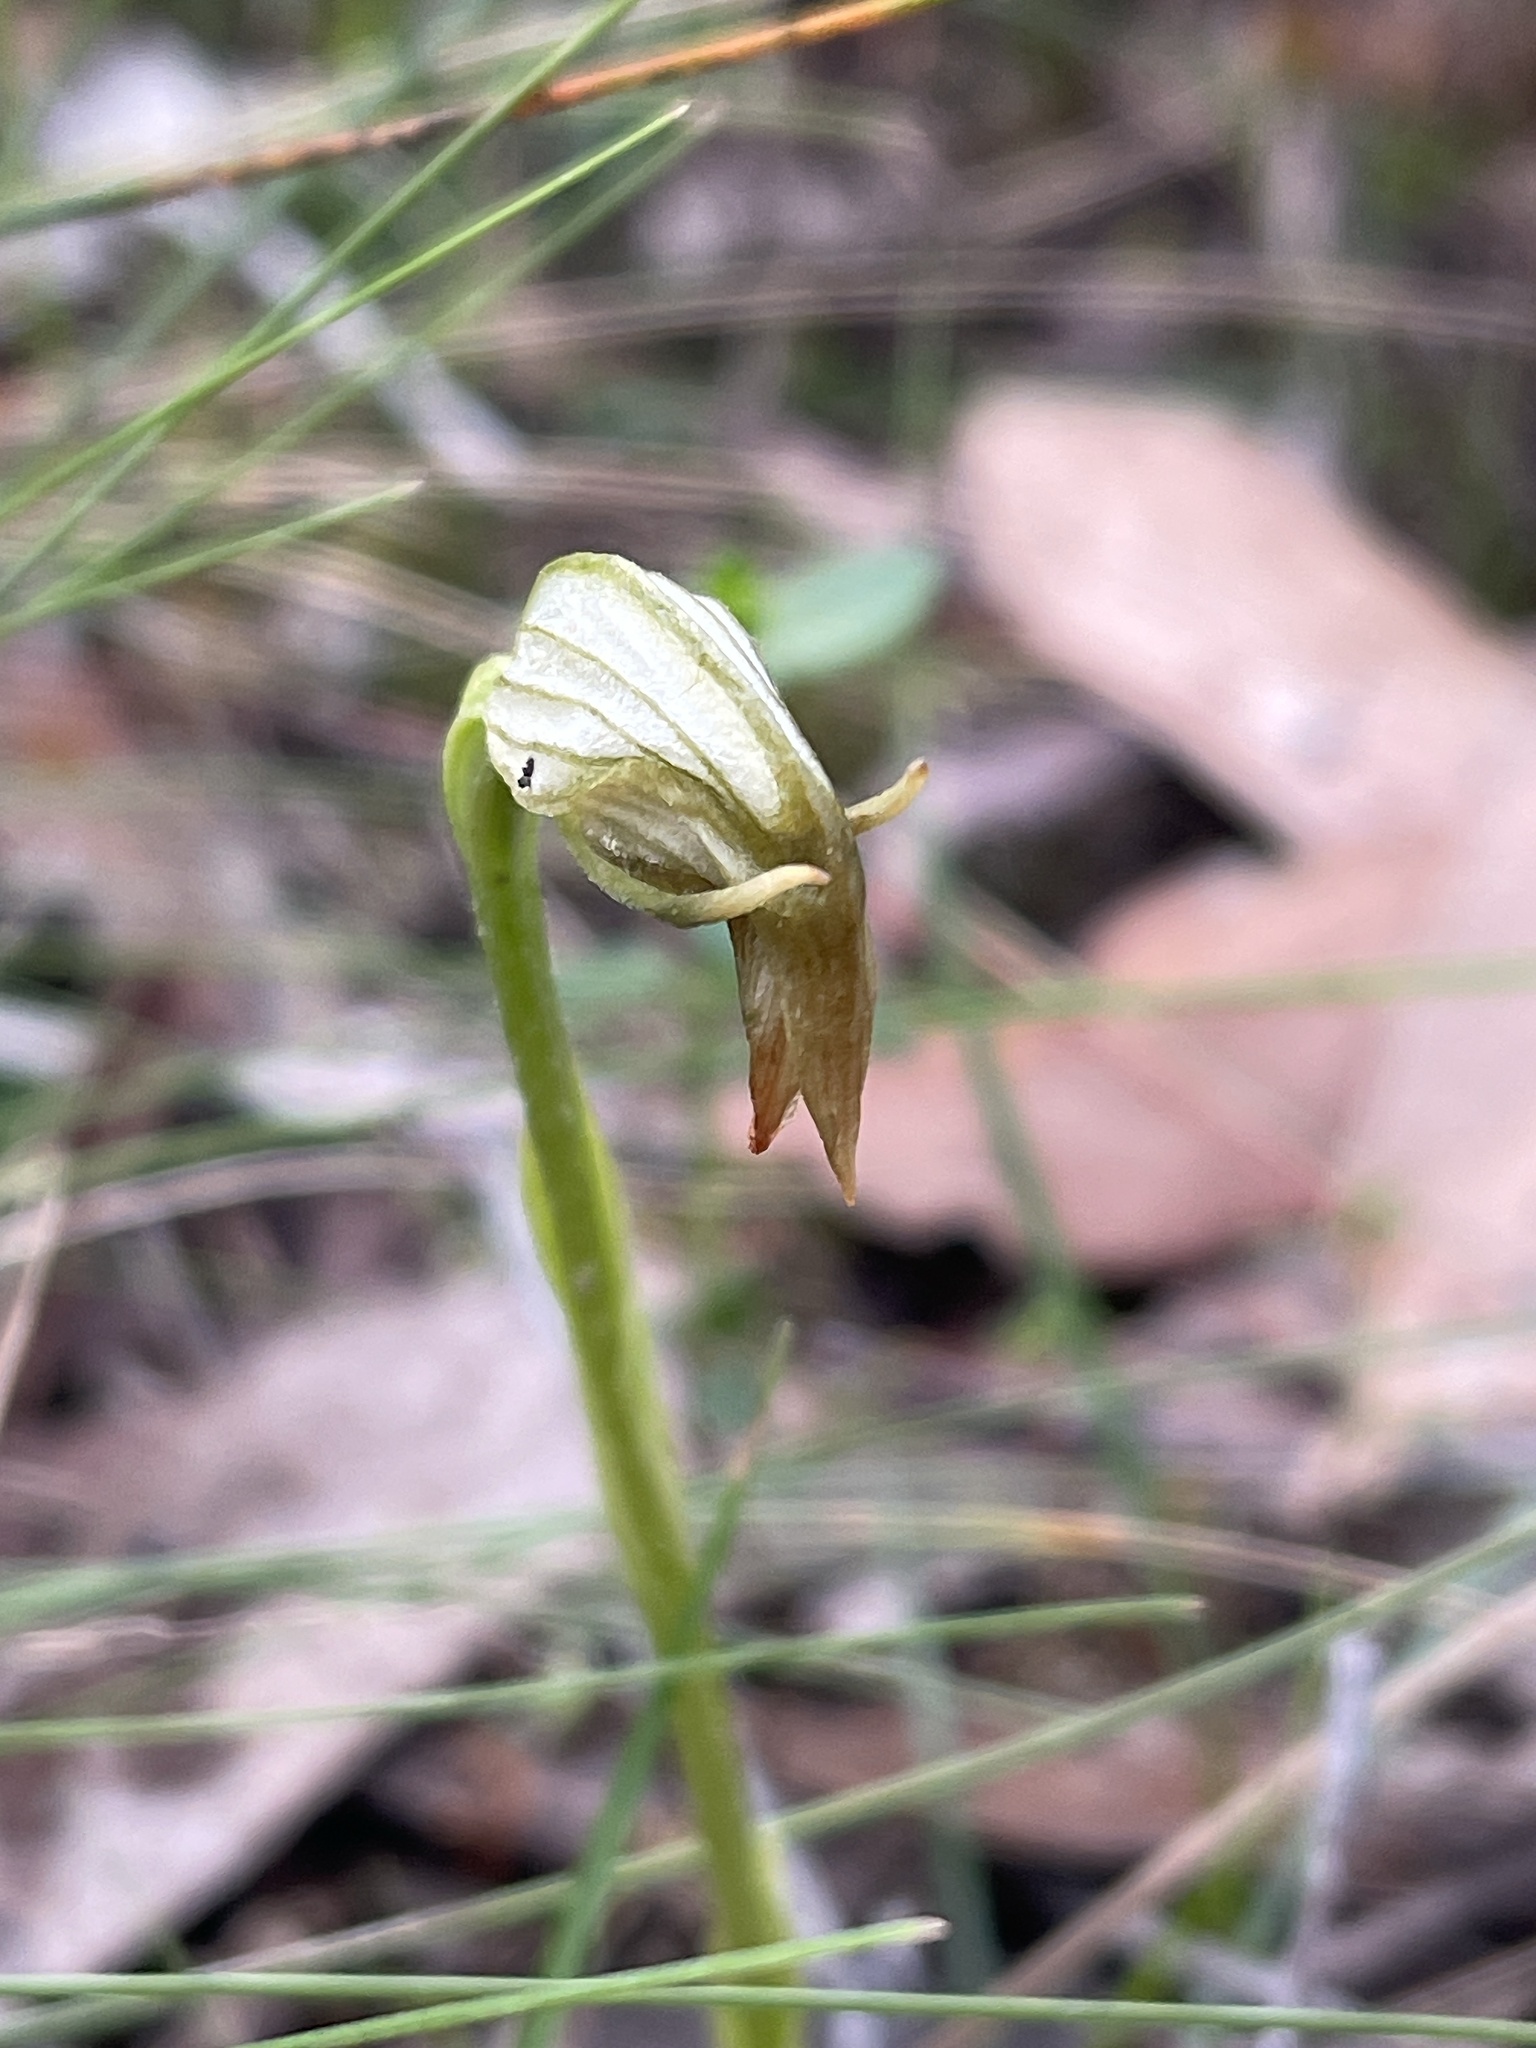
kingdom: Plantae
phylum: Tracheophyta
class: Liliopsida
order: Asparagales
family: Orchidaceae
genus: Pterostylis
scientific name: Pterostylis nutans
